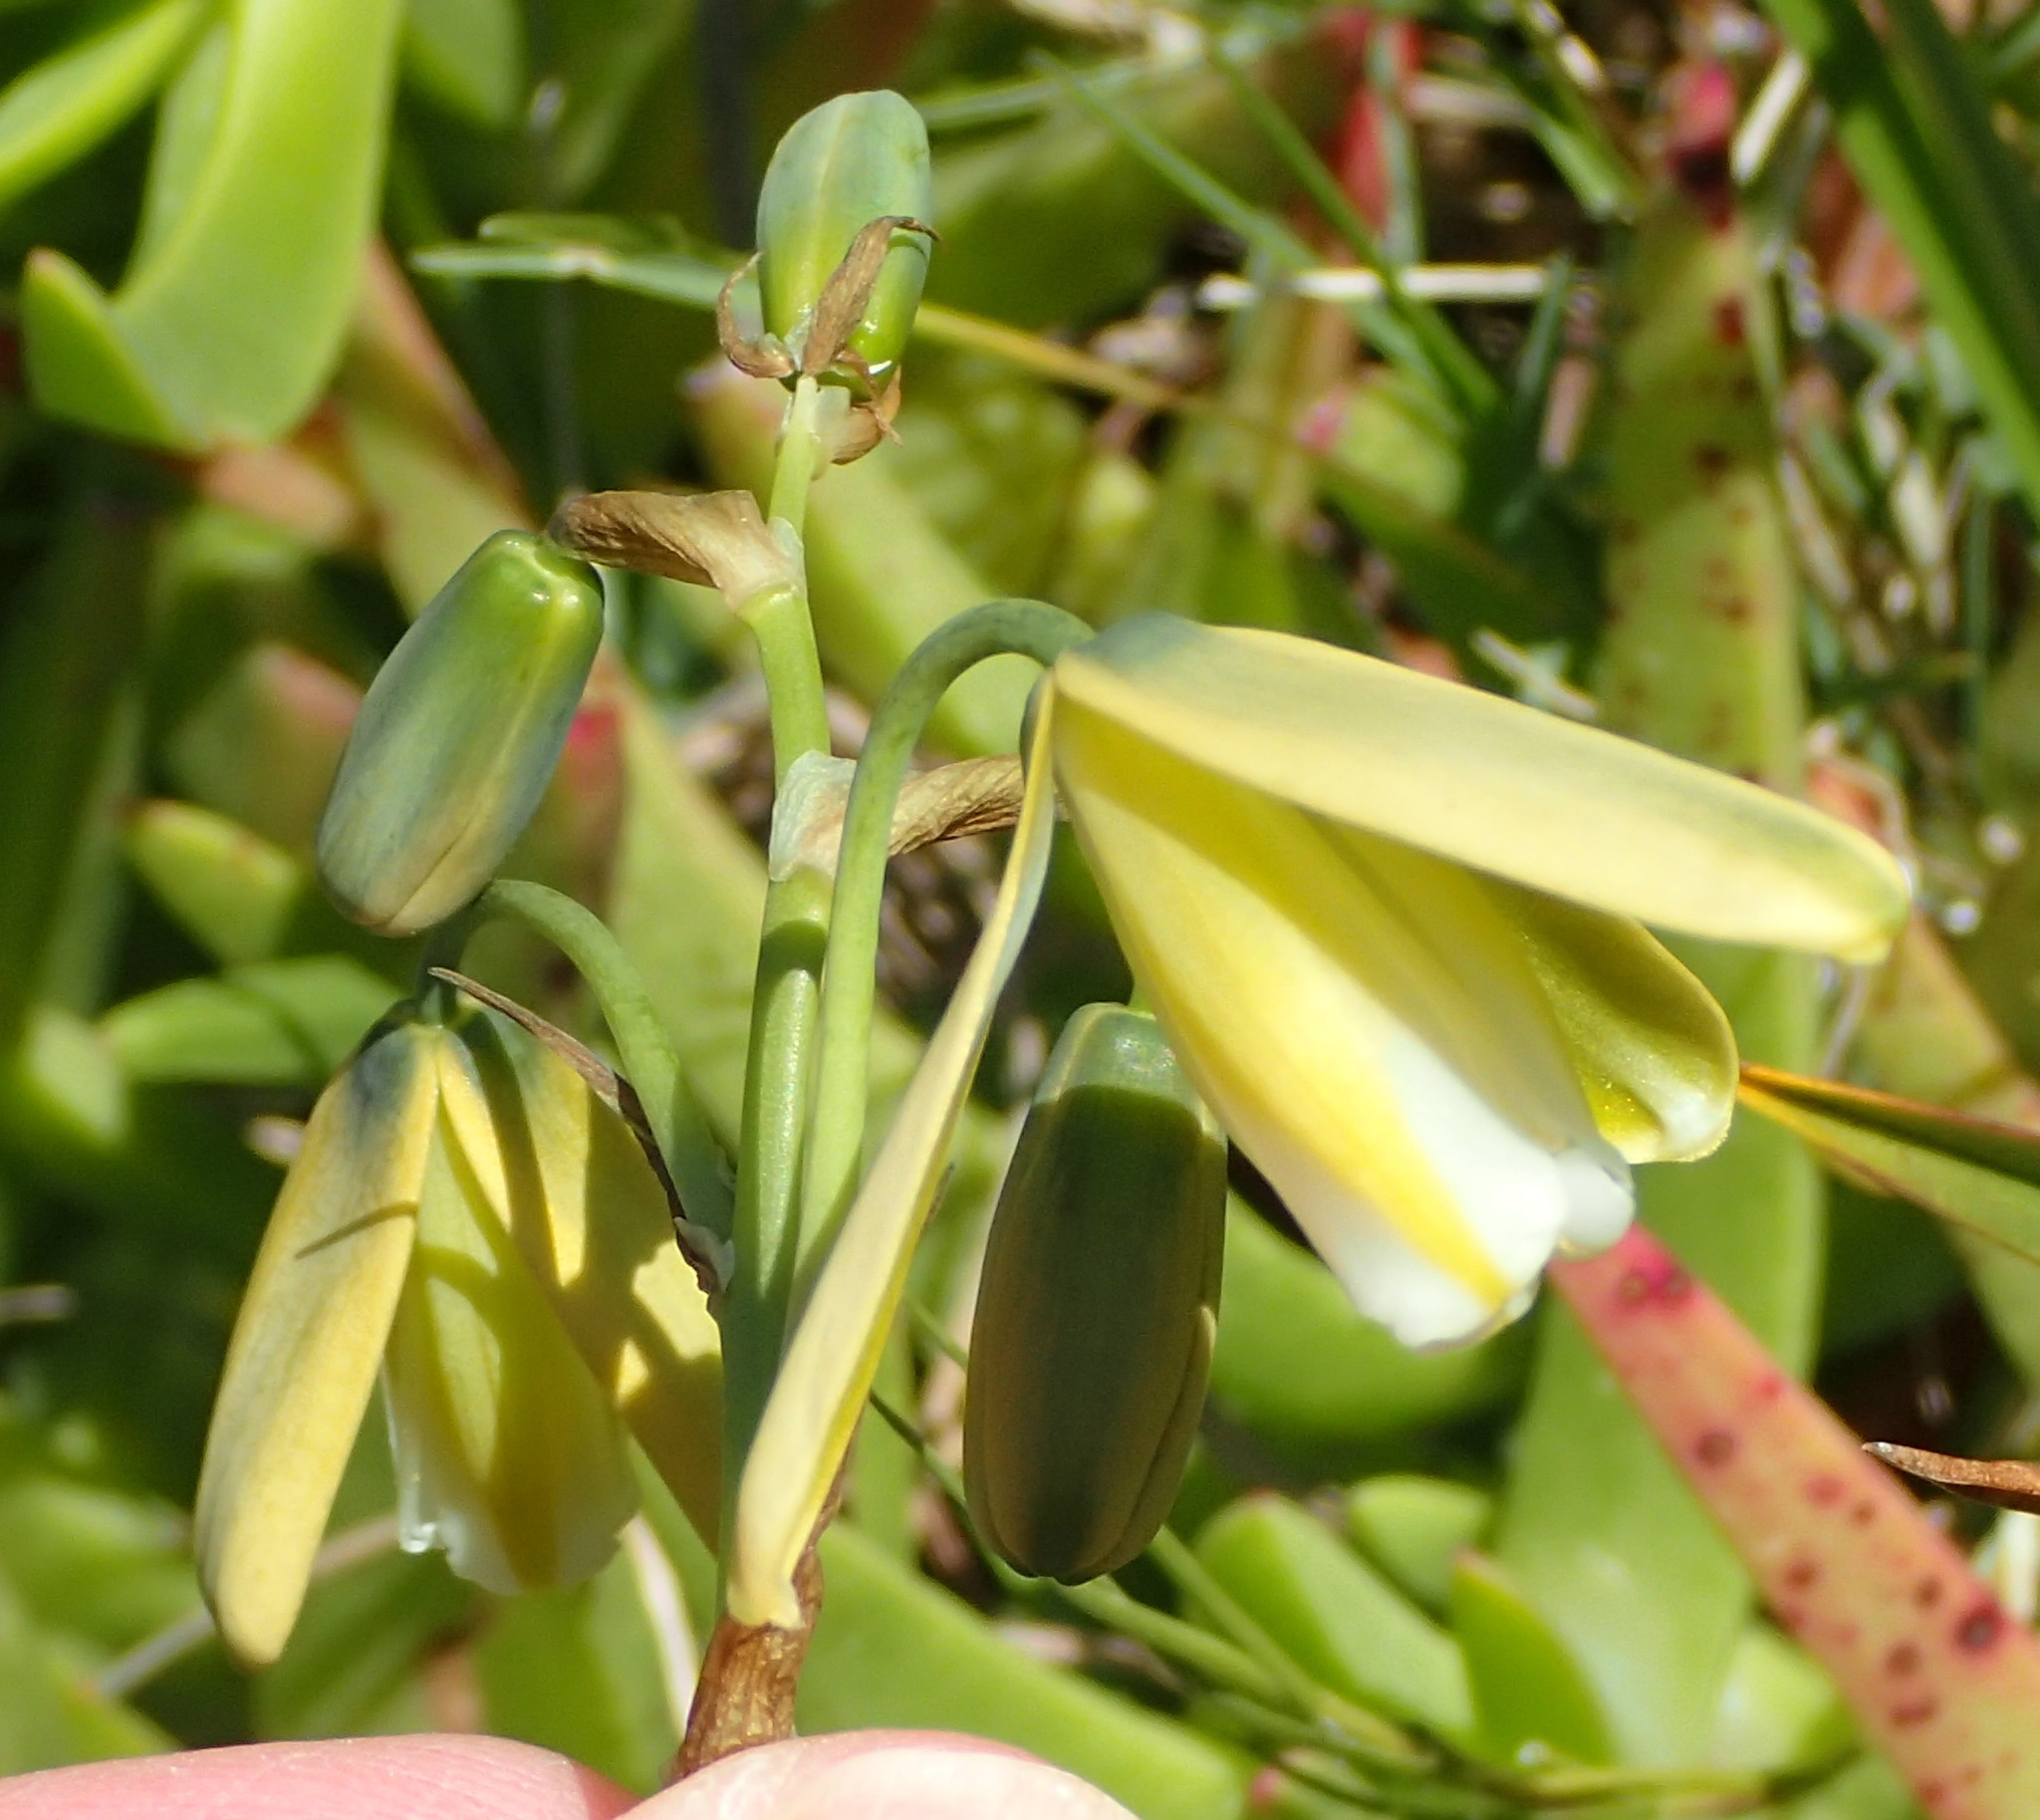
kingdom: Plantae
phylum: Tracheophyta
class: Liliopsida
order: Asparagales
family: Asparagaceae
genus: Albuca
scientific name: Albuca flaccida
